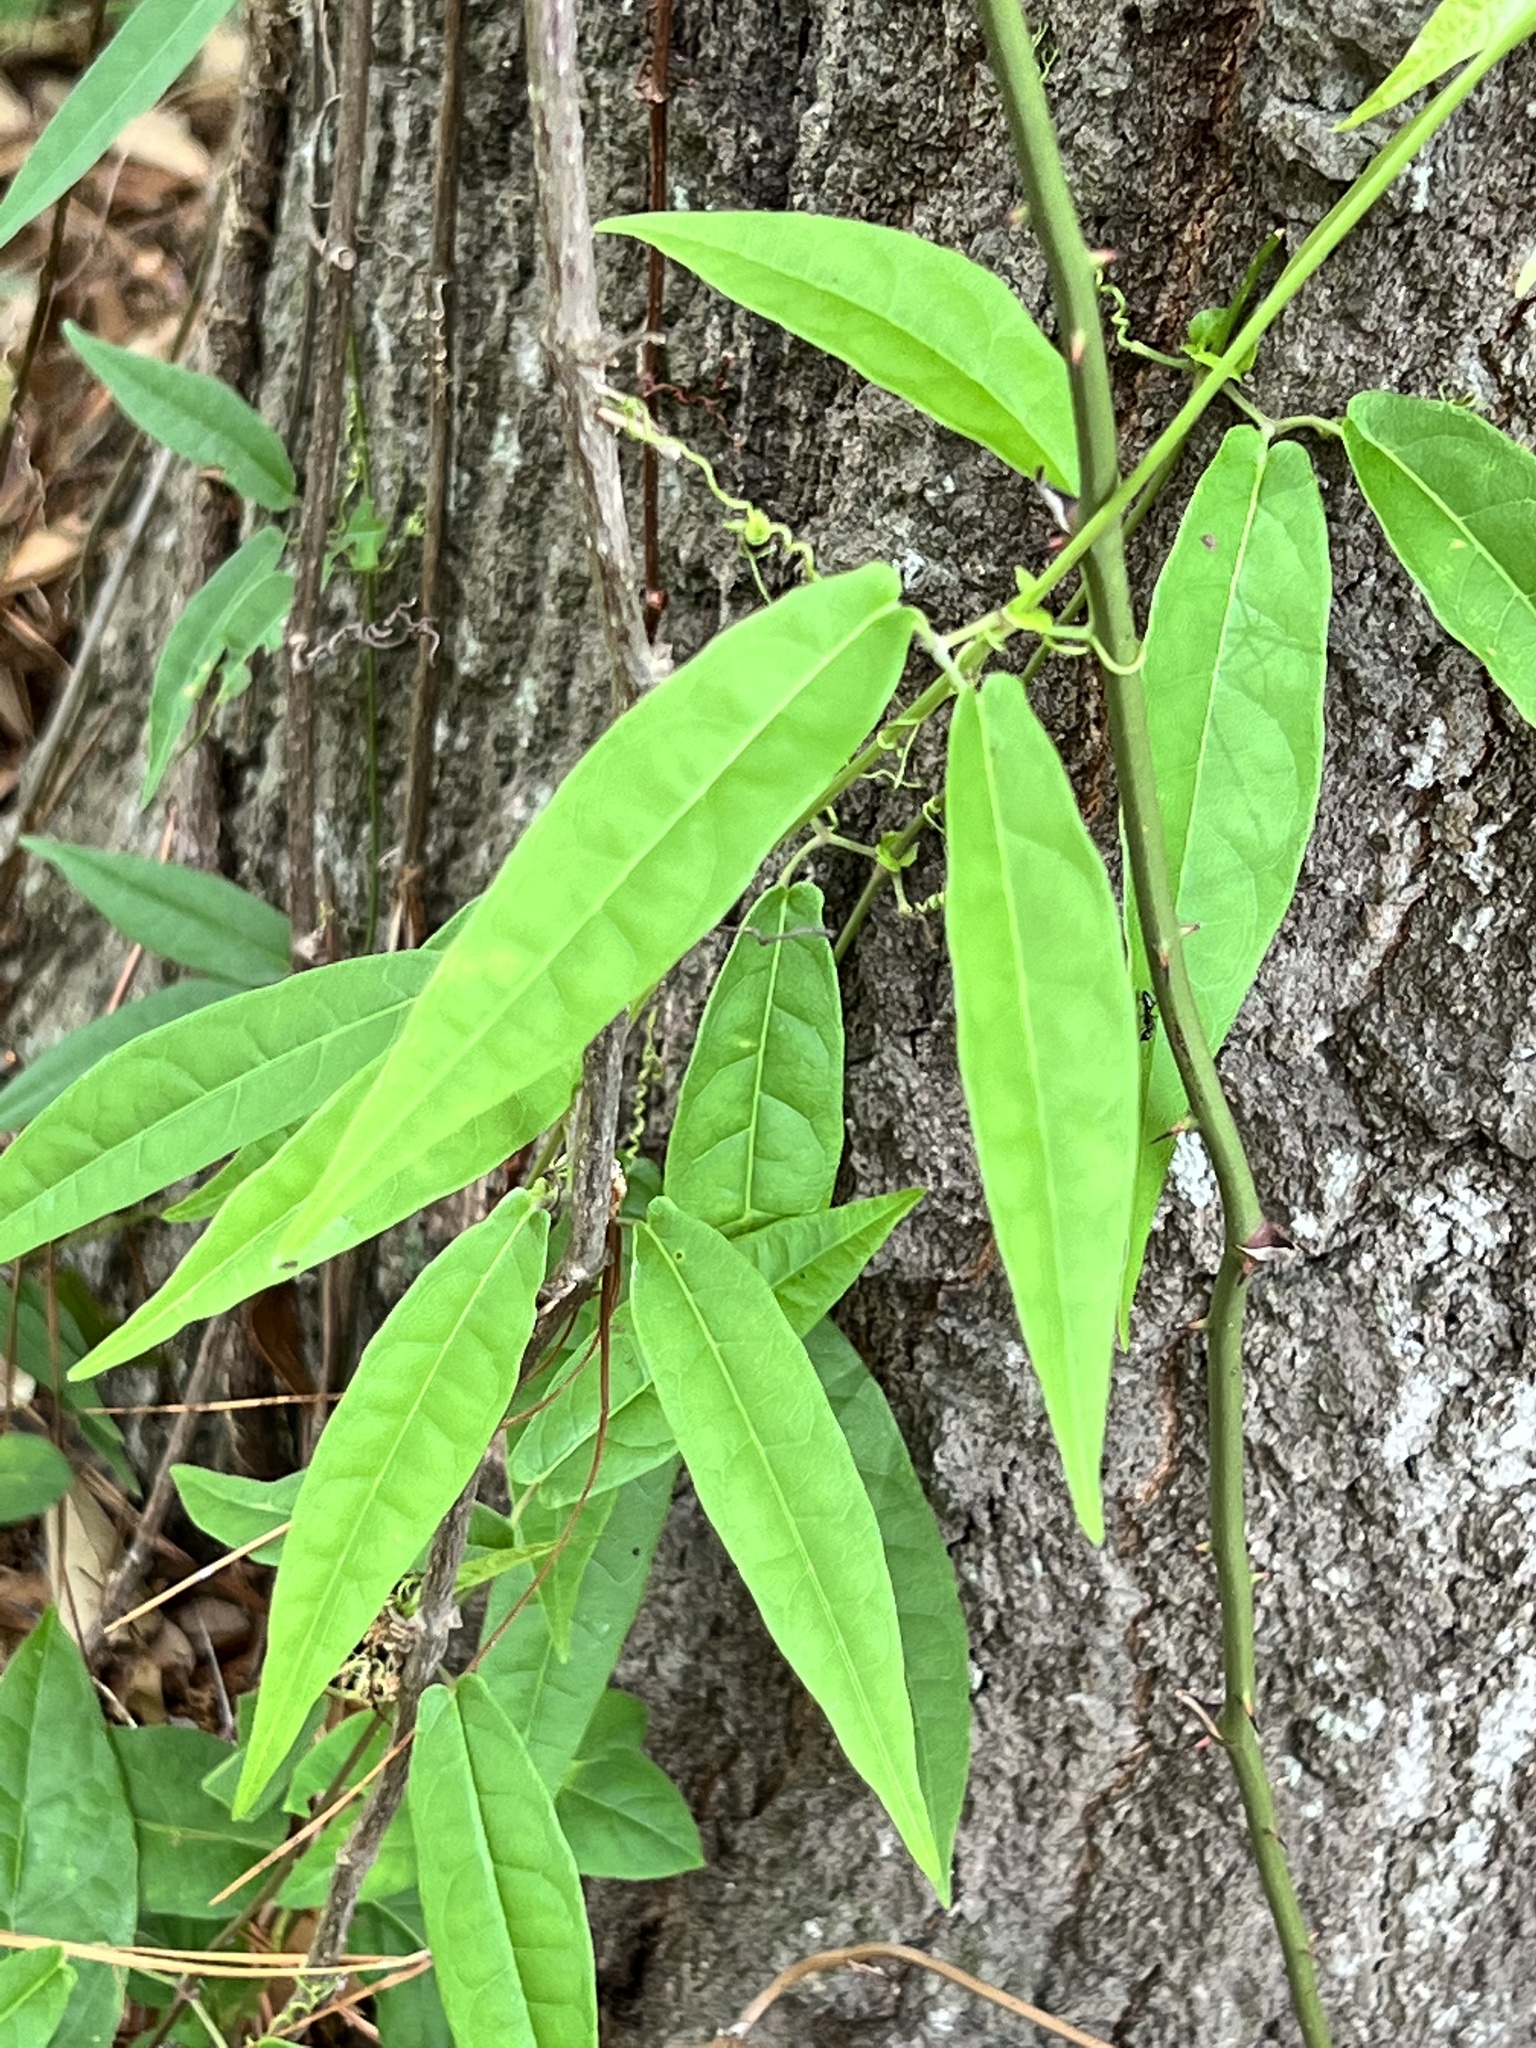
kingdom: Plantae
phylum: Tracheophyta
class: Magnoliopsida
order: Lamiales
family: Bignoniaceae
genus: Bignonia
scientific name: Bignonia capreolata
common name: Crossvine
